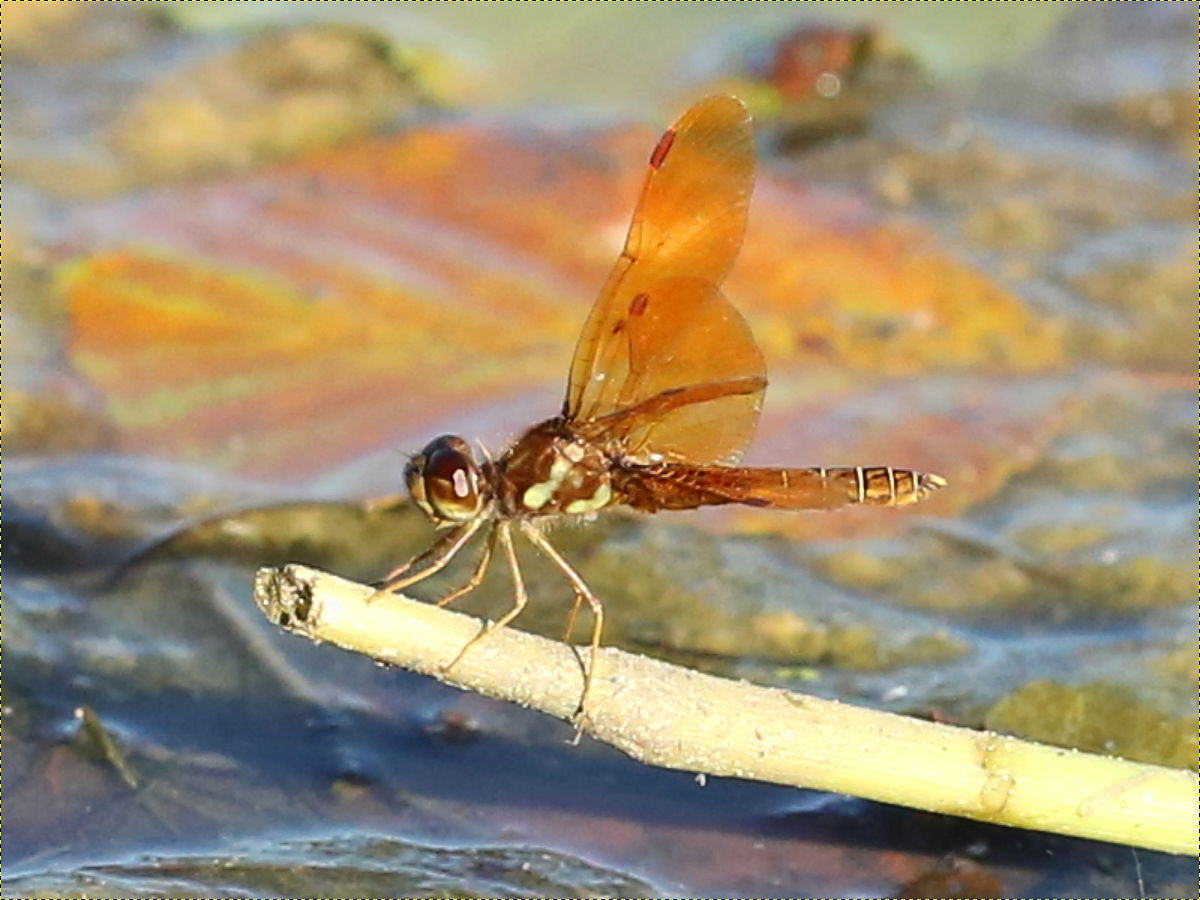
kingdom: Animalia
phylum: Arthropoda
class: Insecta
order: Odonata
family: Libellulidae
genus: Perithemis
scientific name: Perithemis tenera
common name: Eastern amberwing
